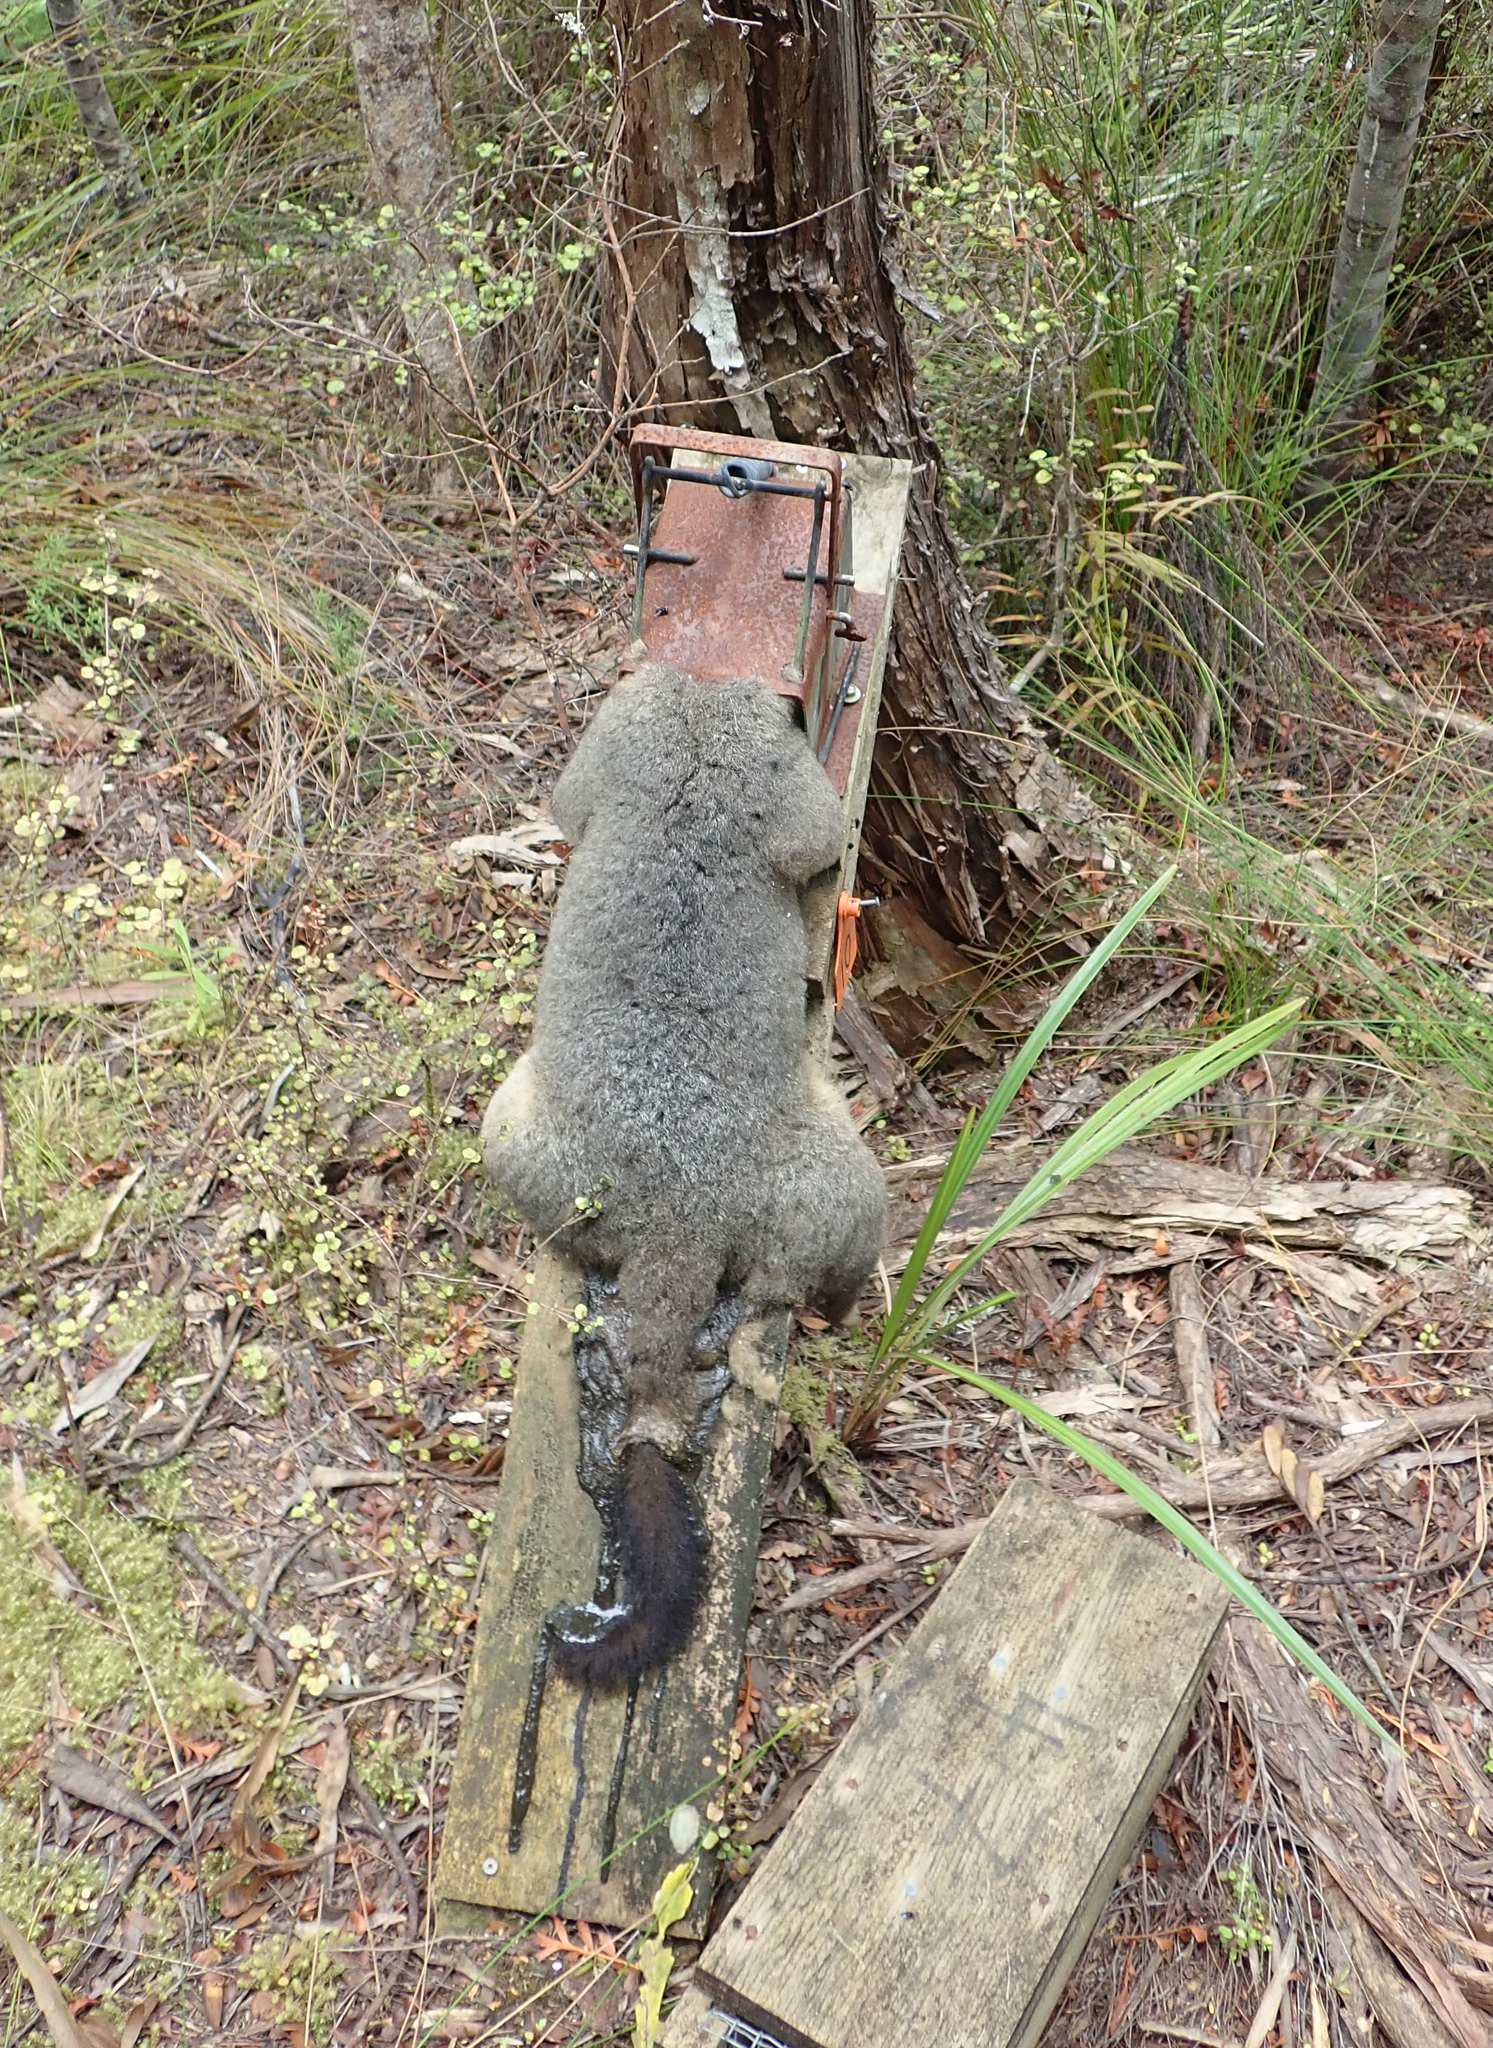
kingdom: Animalia
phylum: Chordata
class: Mammalia
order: Diprotodontia
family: Phalangeridae
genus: Trichosurus
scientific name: Trichosurus vulpecula
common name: Common brushtail
